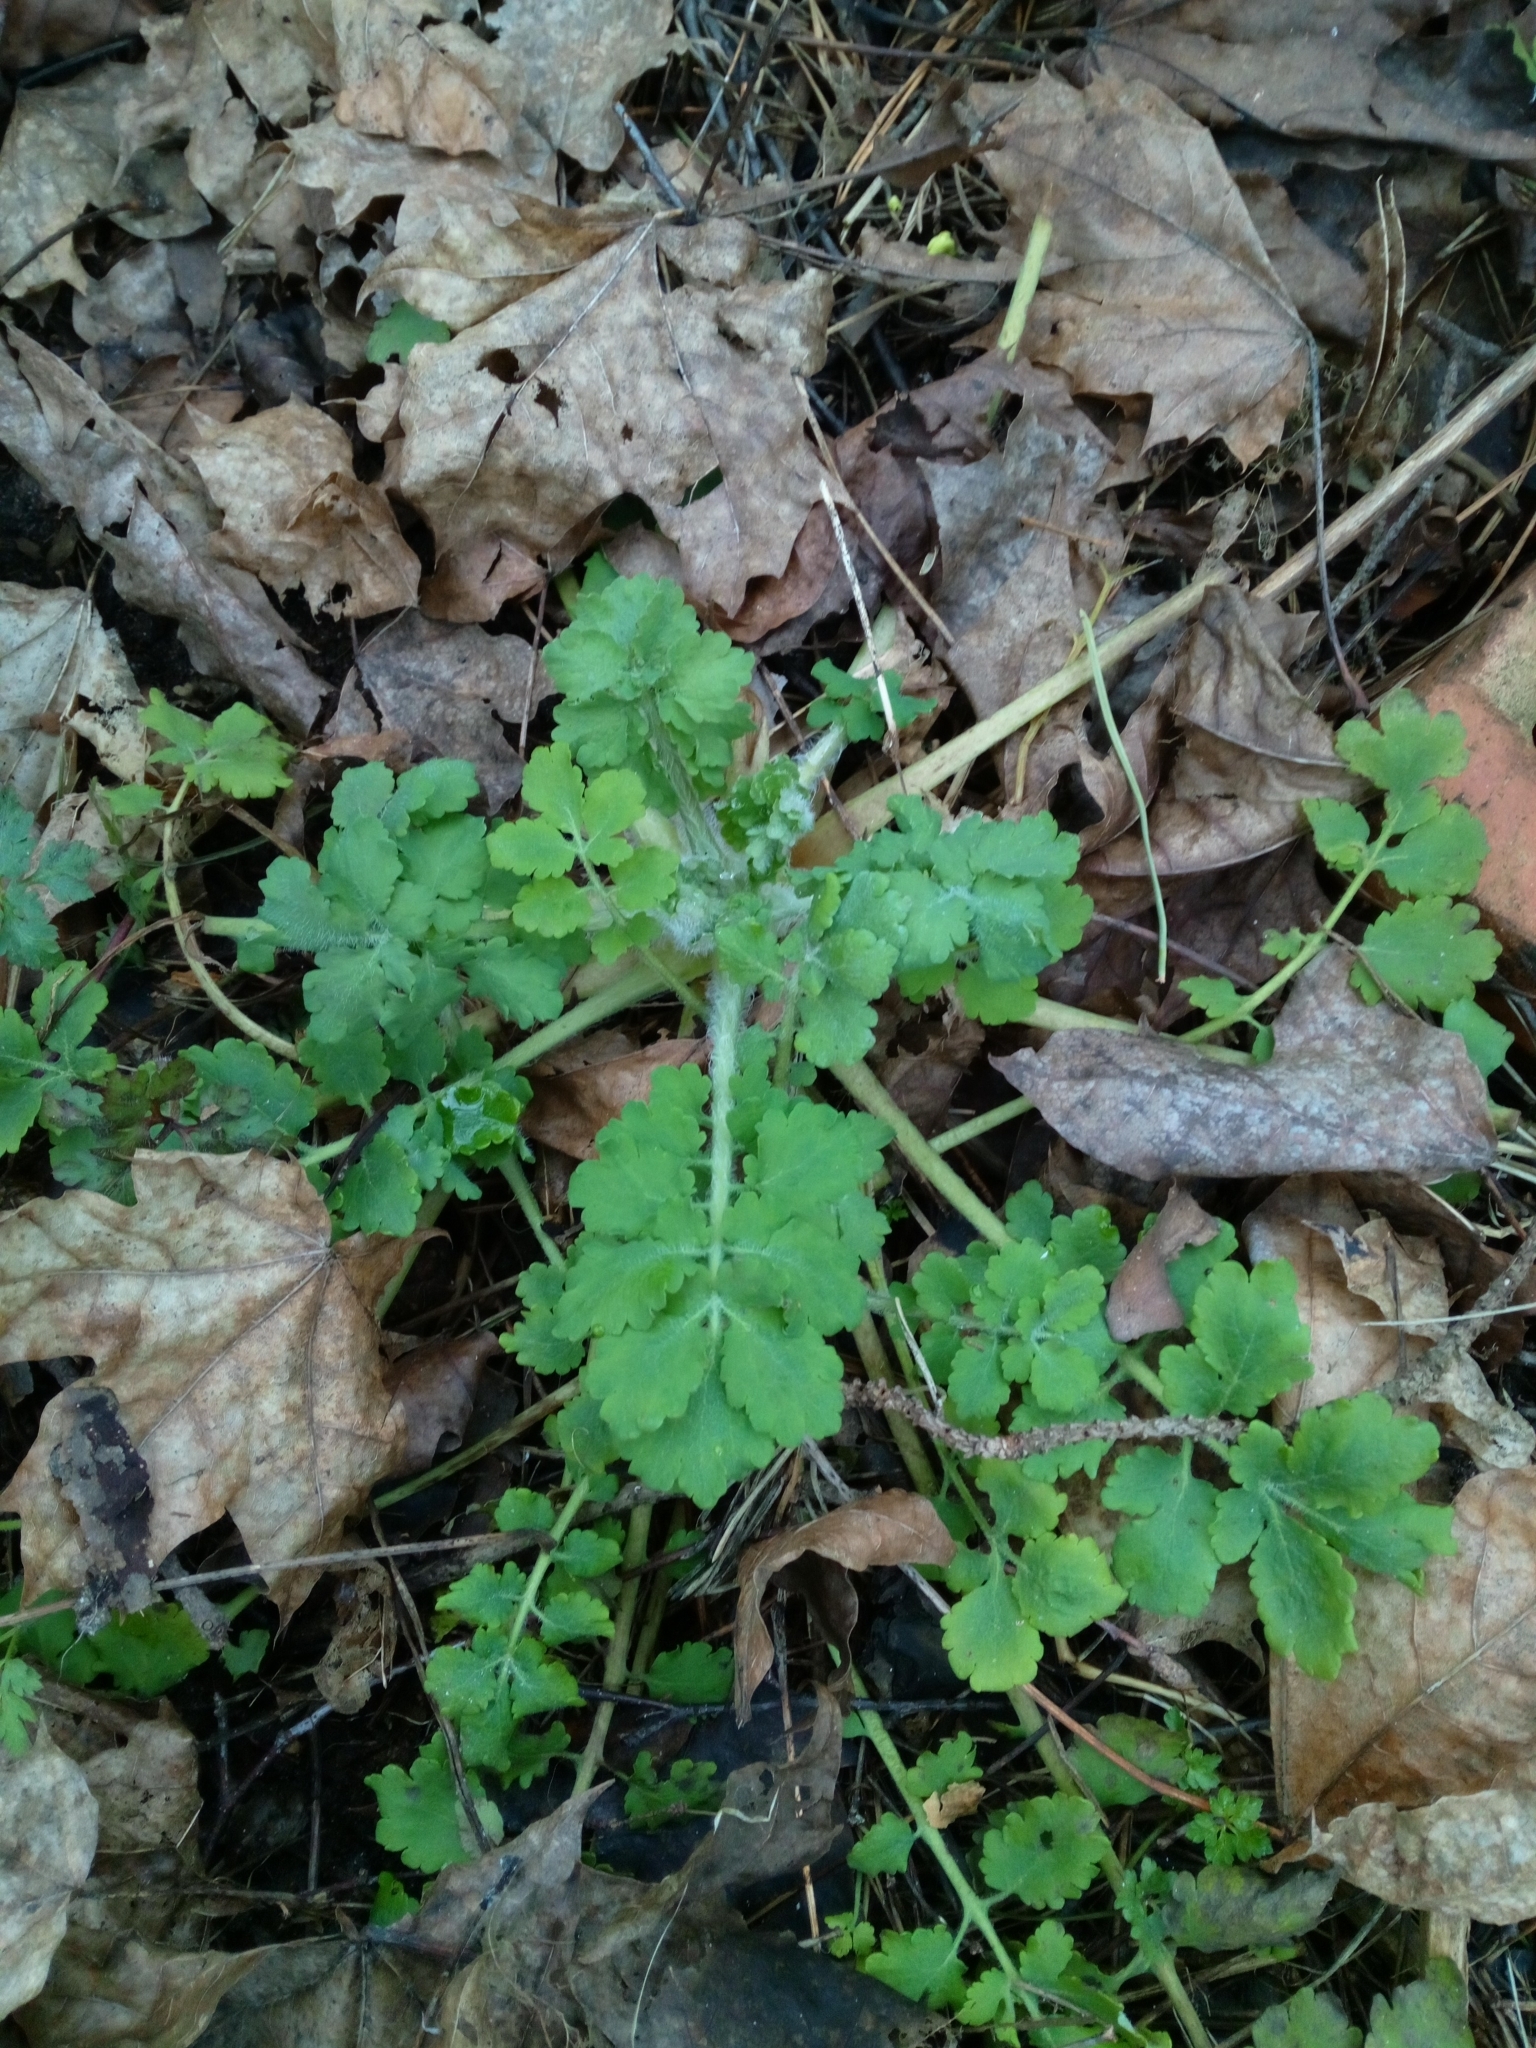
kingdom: Plantae
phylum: Tracheophyta
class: Magnoliopsida
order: Ranunculales
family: Papaveraceae
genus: Chelidonium
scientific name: Chelidonium majus
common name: Greater celandine
